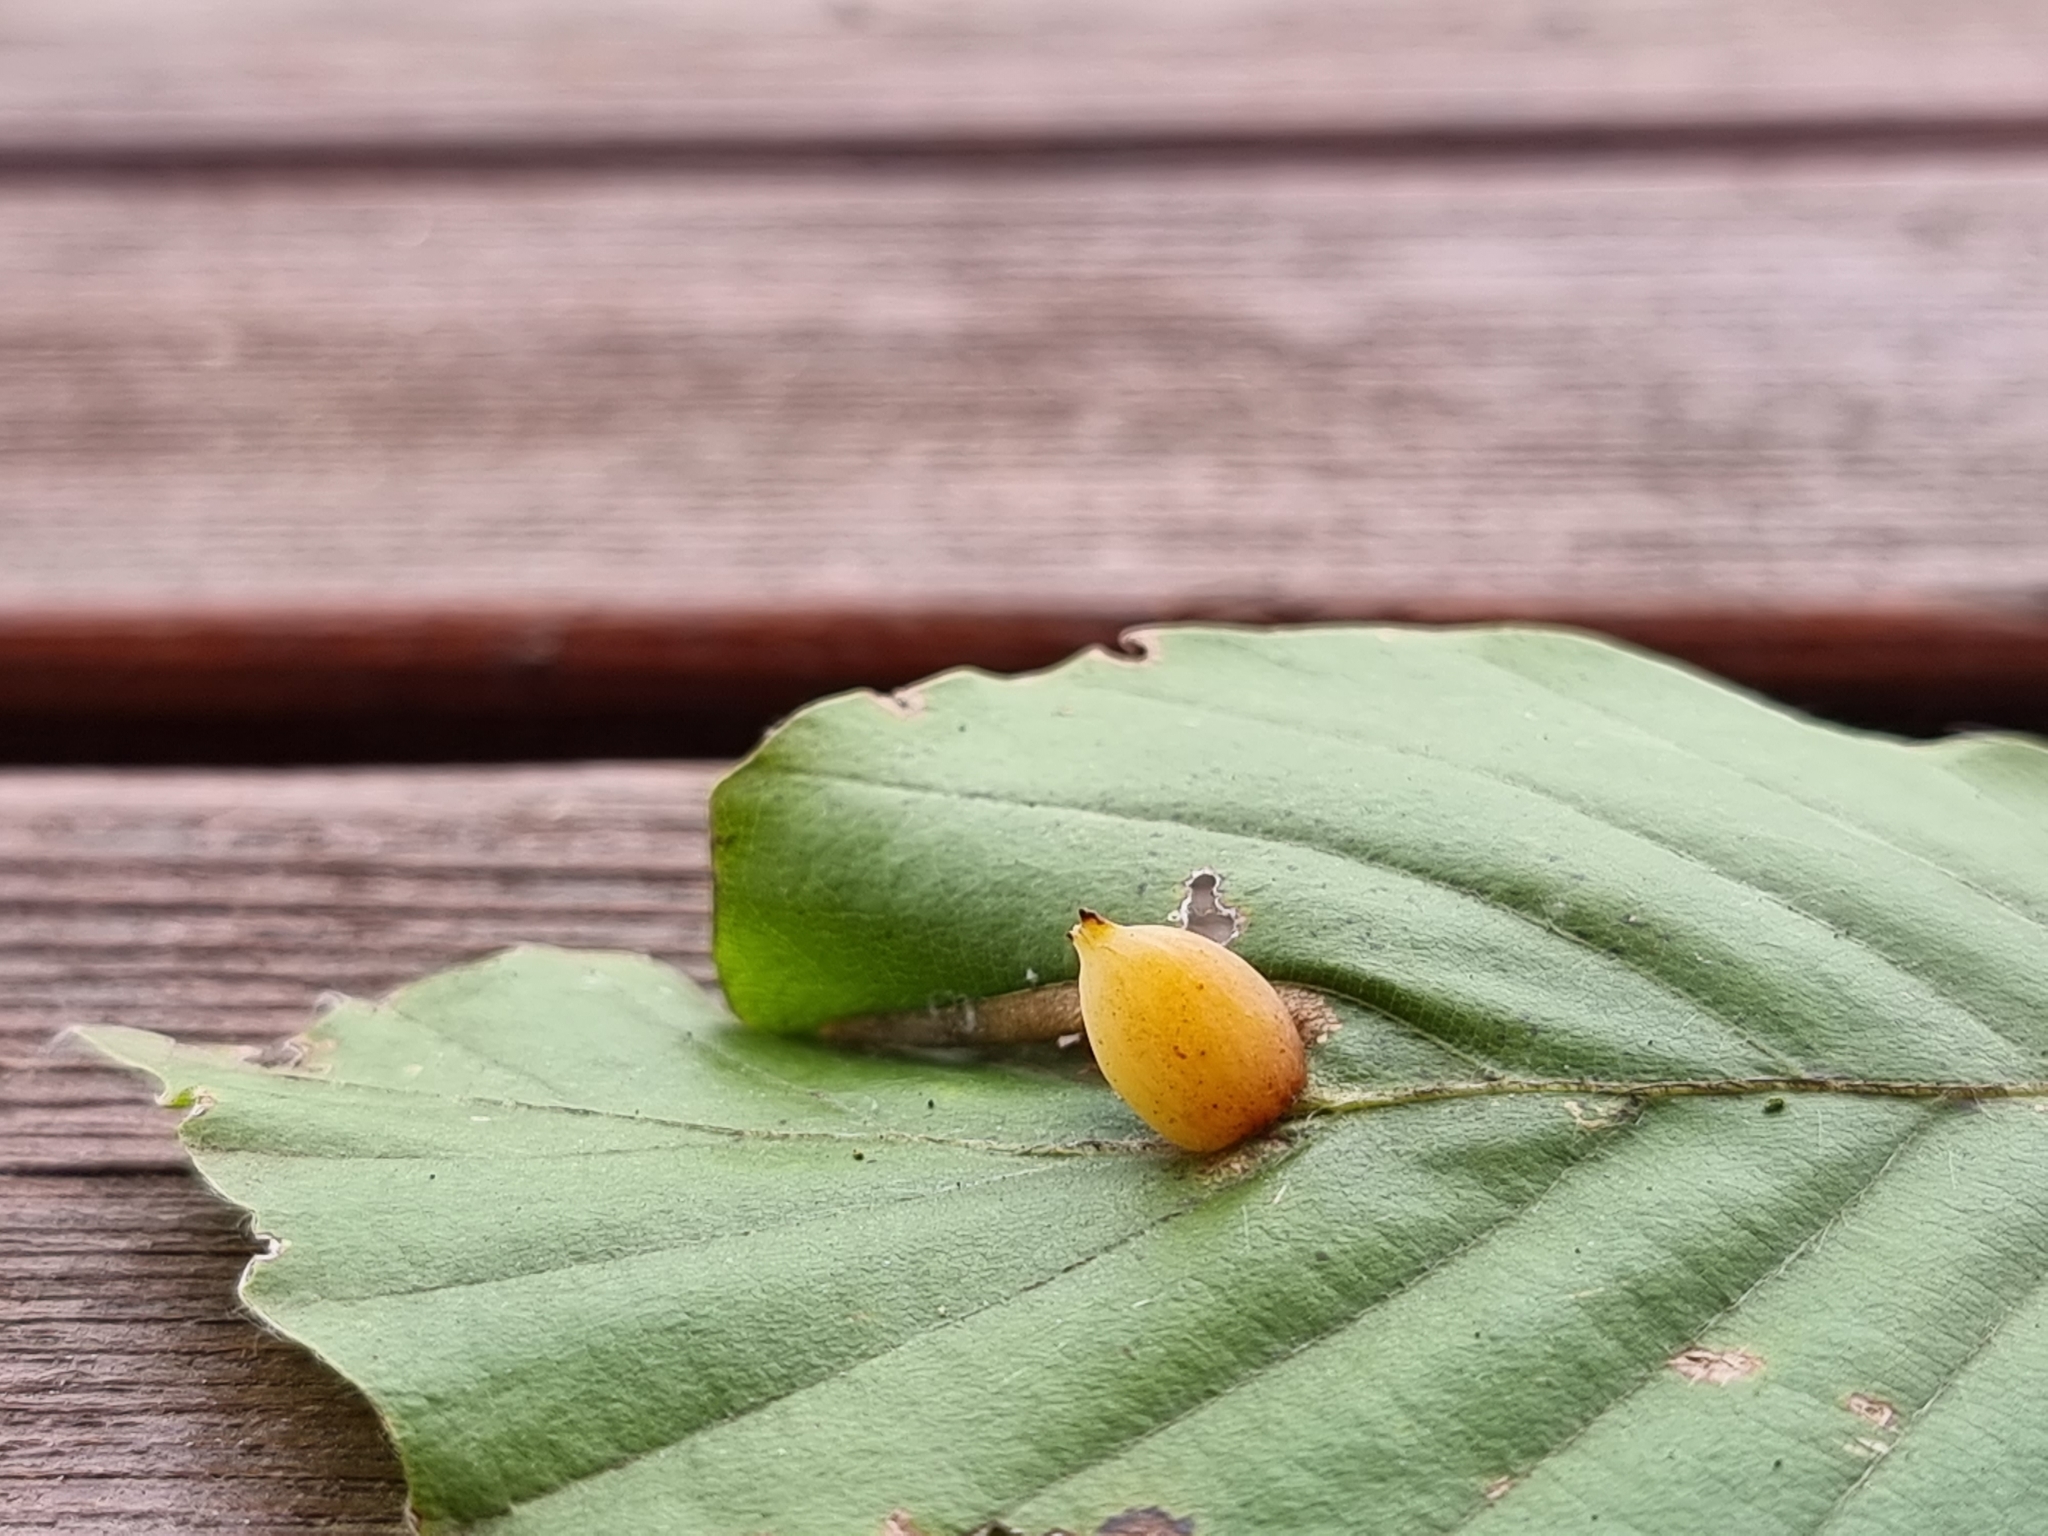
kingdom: Animalia
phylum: Arthropoda
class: Insecta
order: Diptera
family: Cecidomyiidae
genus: Mikiola
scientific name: Mikiola fagi
